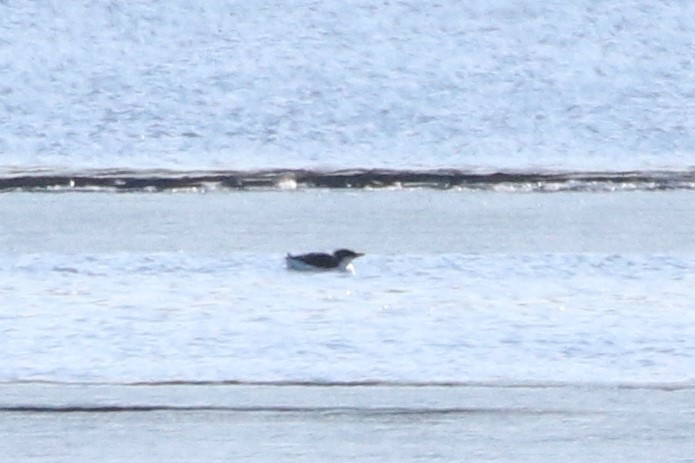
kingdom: Animalia
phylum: Chordata
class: Aves
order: Charadriiformes
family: Alcidae
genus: Uria
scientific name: Uria lomvia
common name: Thick-billed murre
